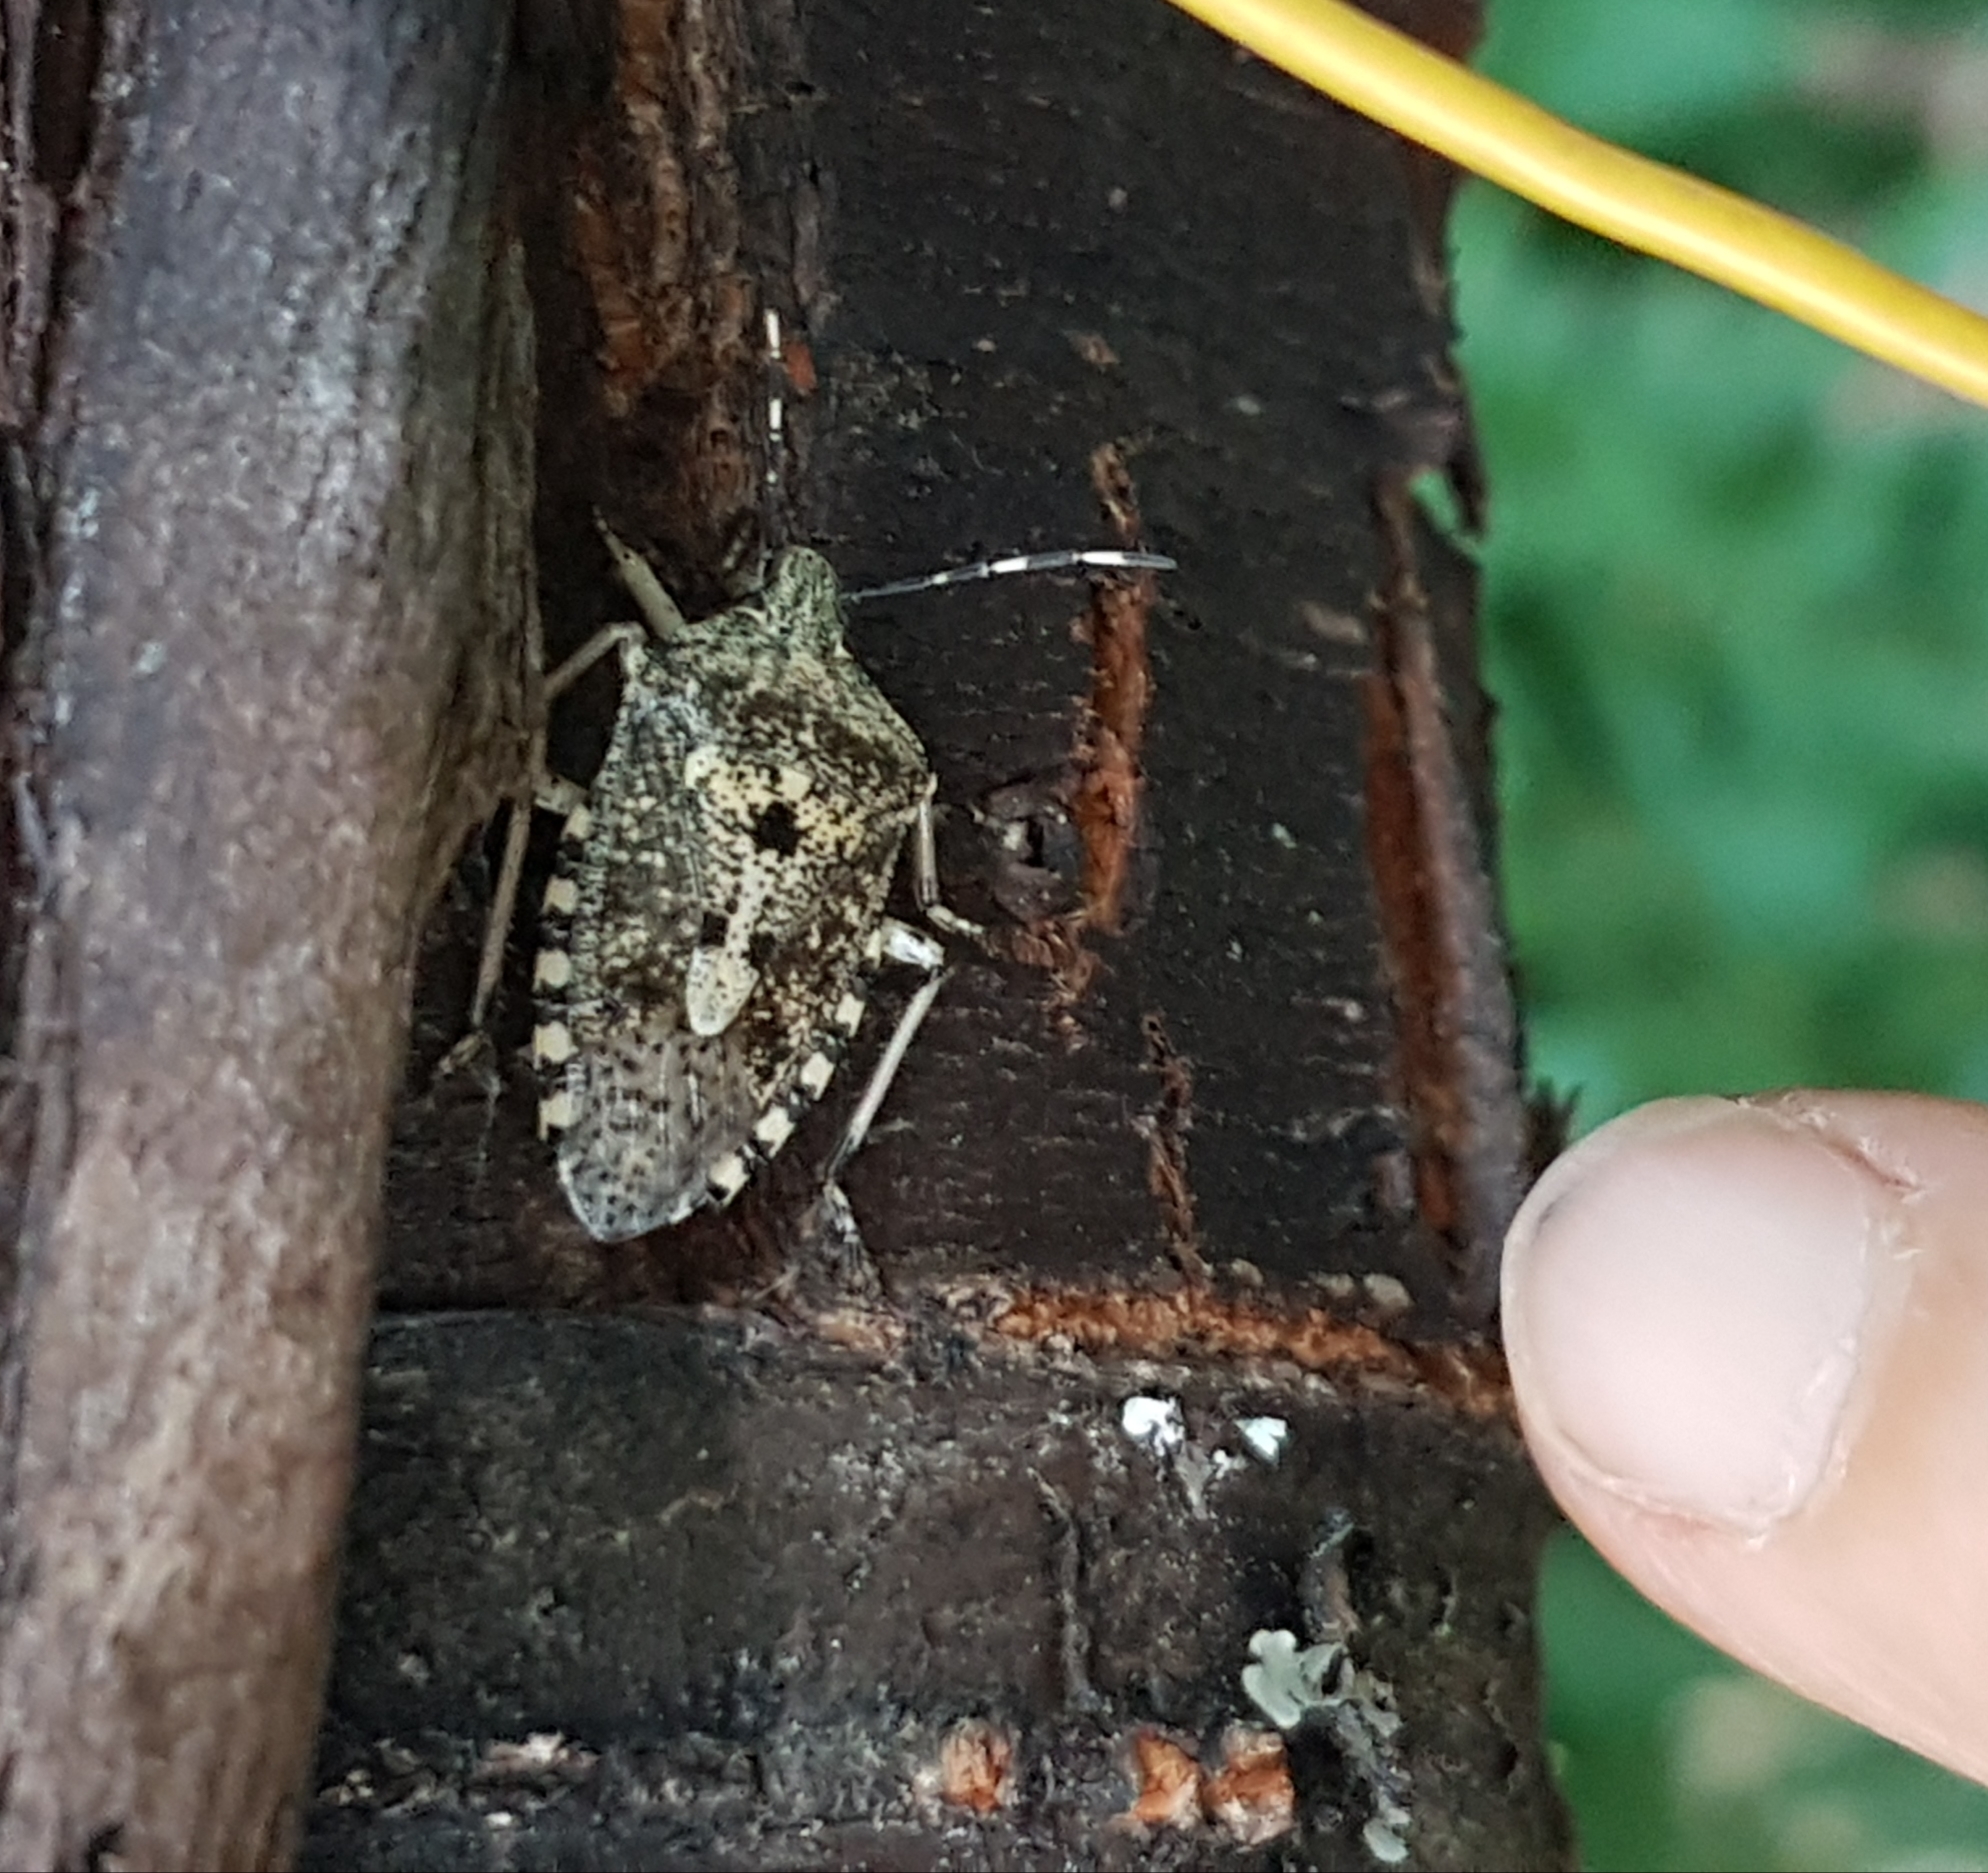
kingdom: Animalia
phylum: Arthropoda
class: Insecta
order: Hemiptera
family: Pentatomidae
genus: Rhaphigaster
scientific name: Rhaphigaster nebulosa
